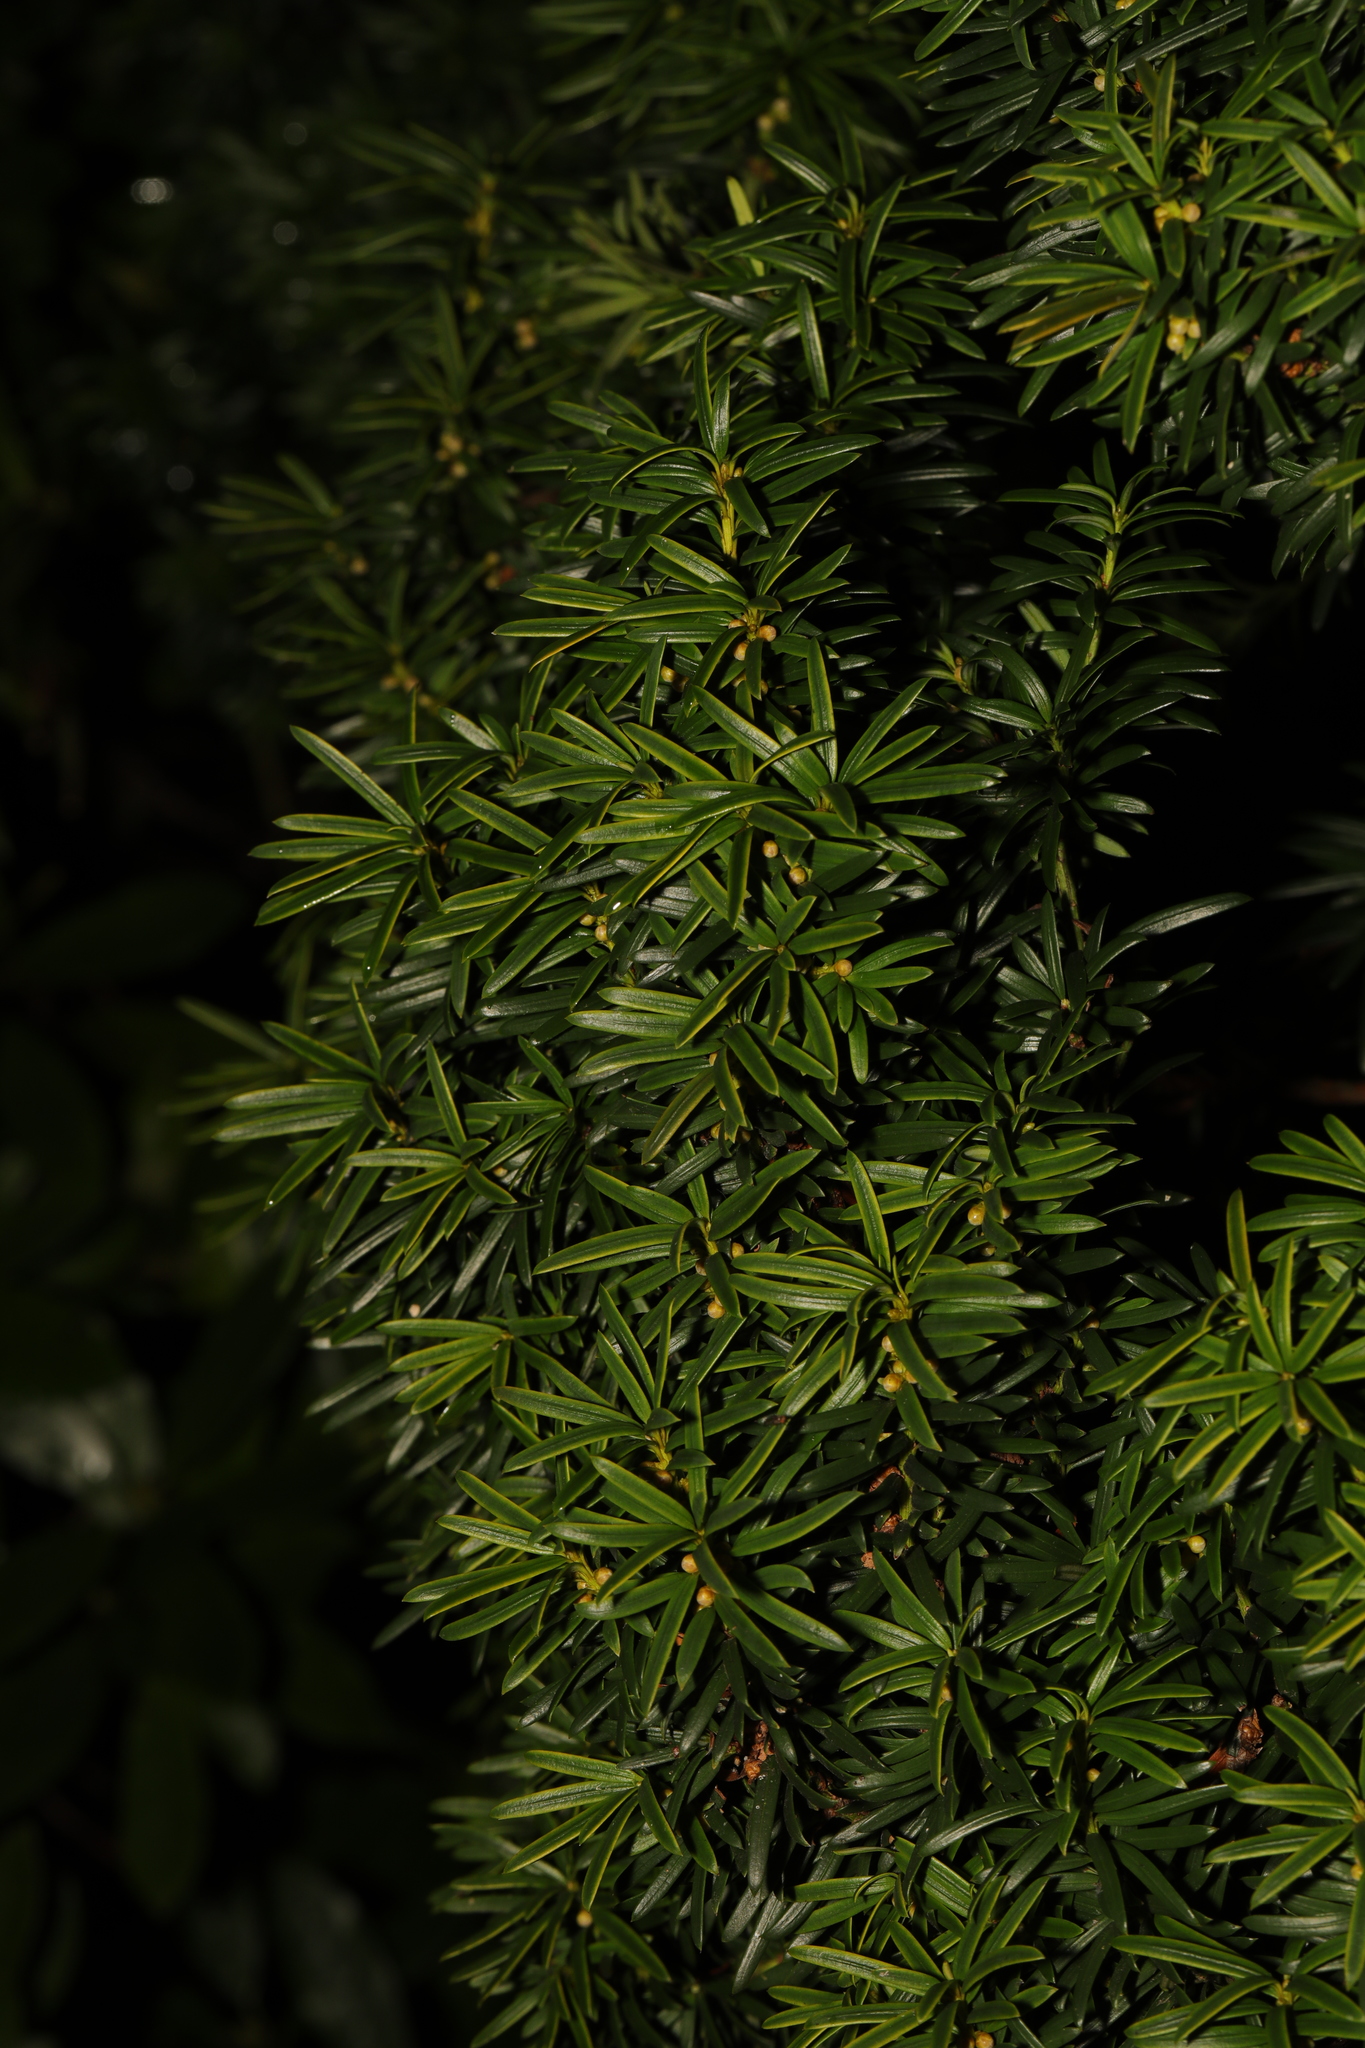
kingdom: Plantae
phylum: Tracheophyta
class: Pinopsida
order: Pinales
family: Taxaceae
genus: Taxus
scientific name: Taxus baccata
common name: Yew
